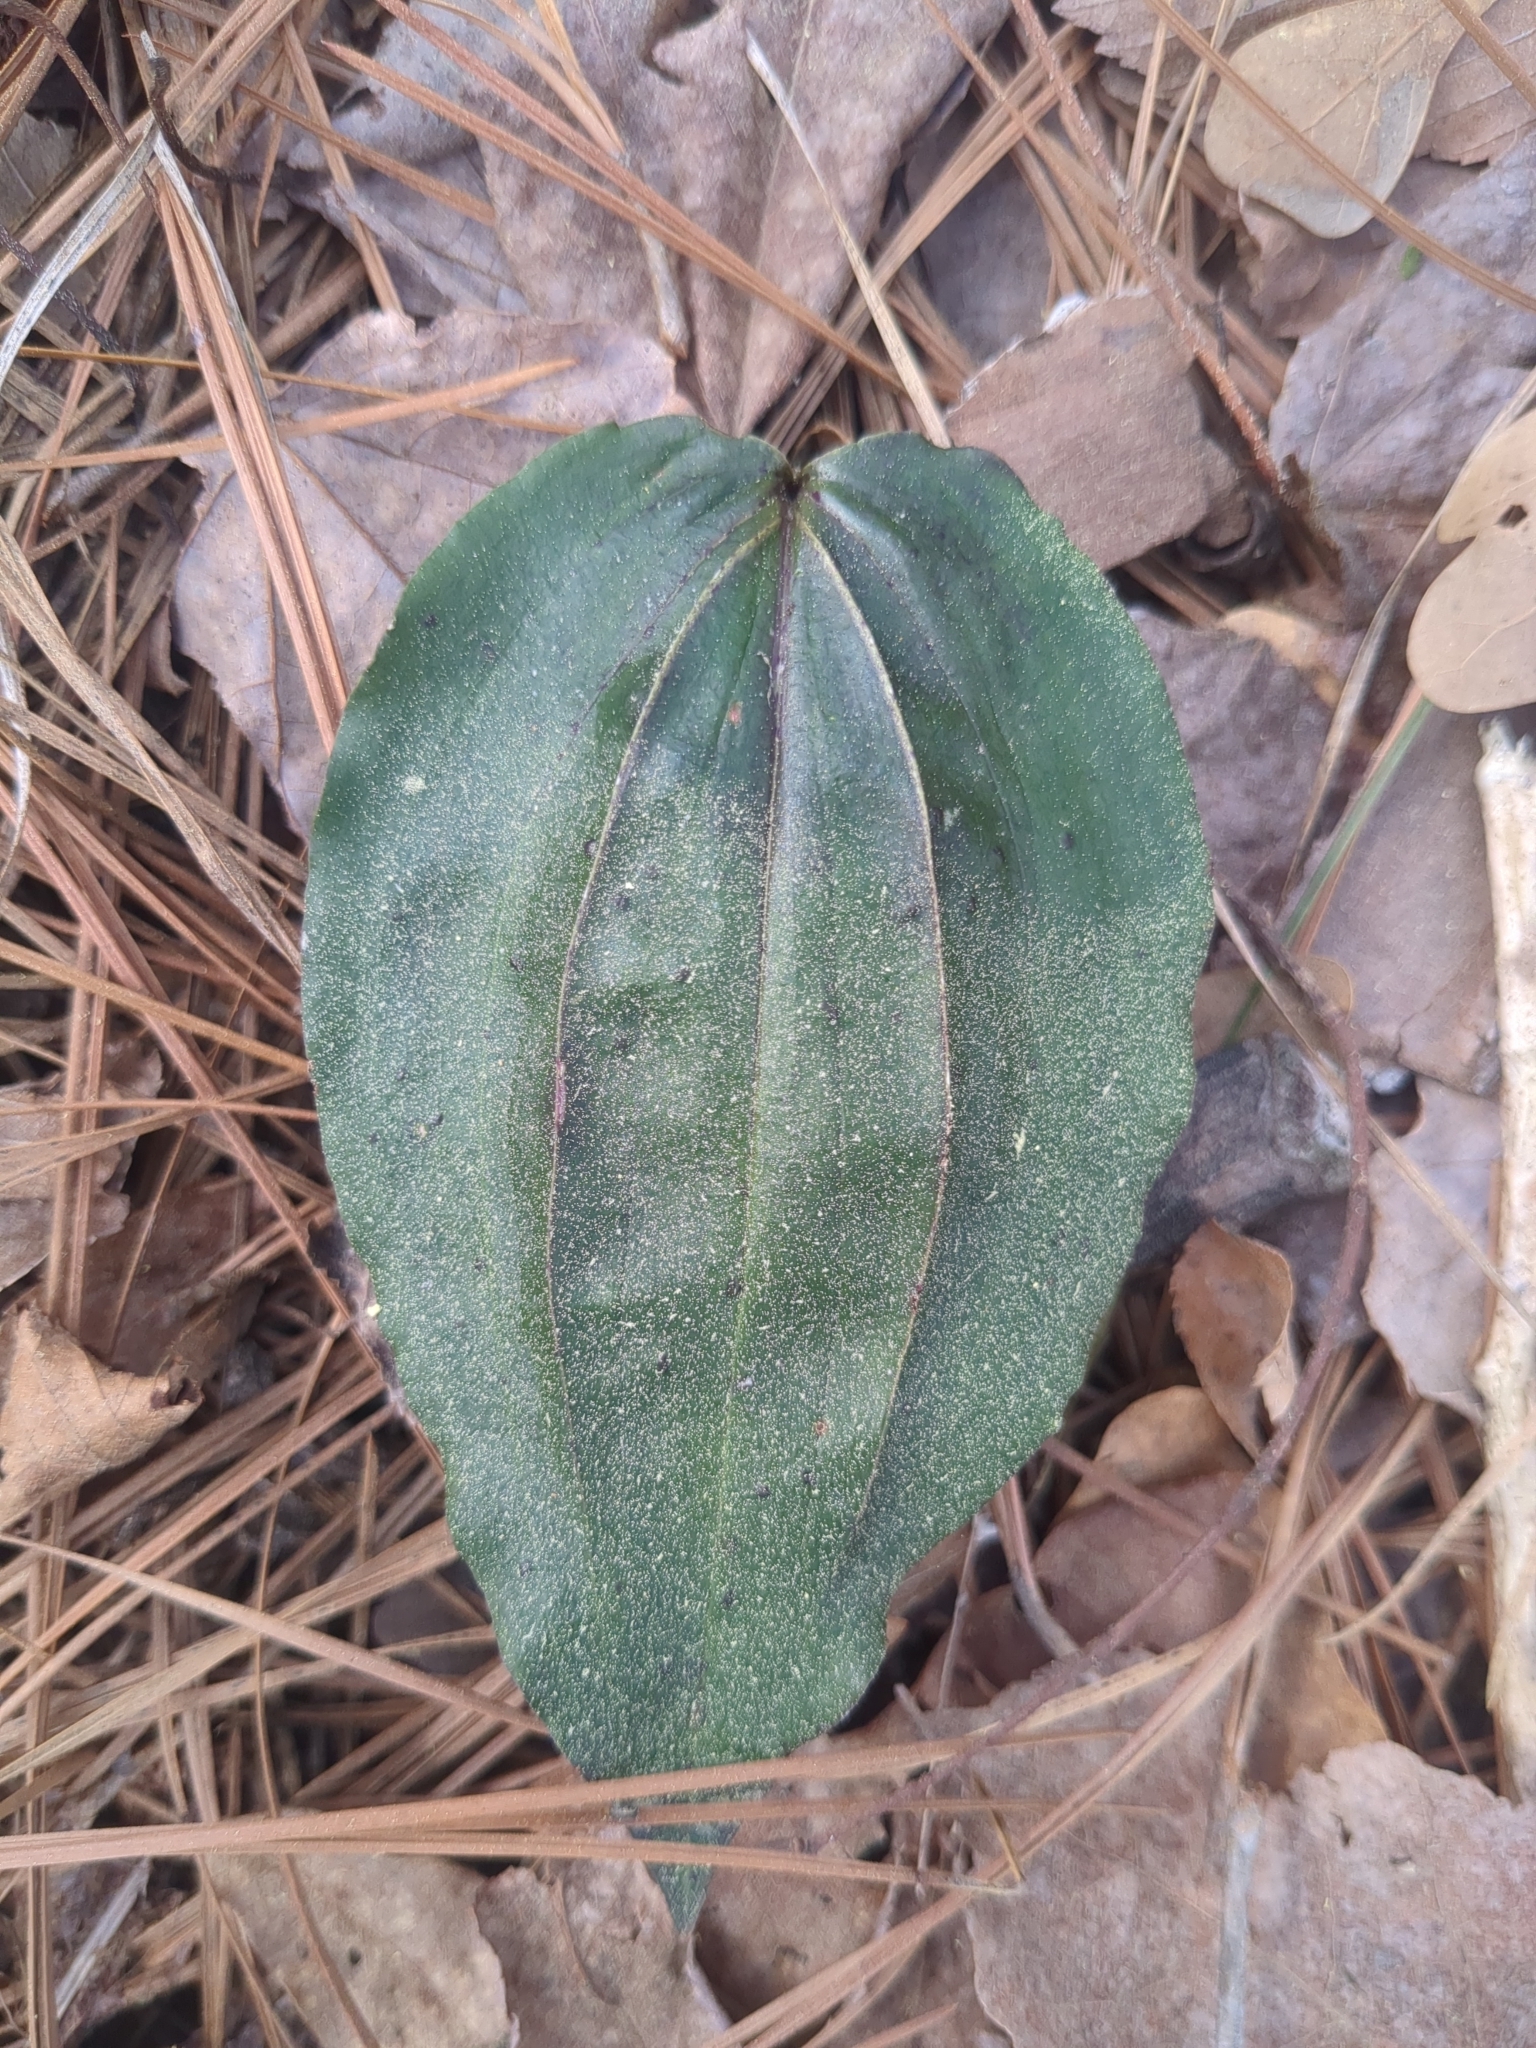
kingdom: Plantae
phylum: Tracheophyta
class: Liliopsida
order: Asparagales
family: Orchidaceae
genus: Tipularia
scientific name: Tipularia discolor
